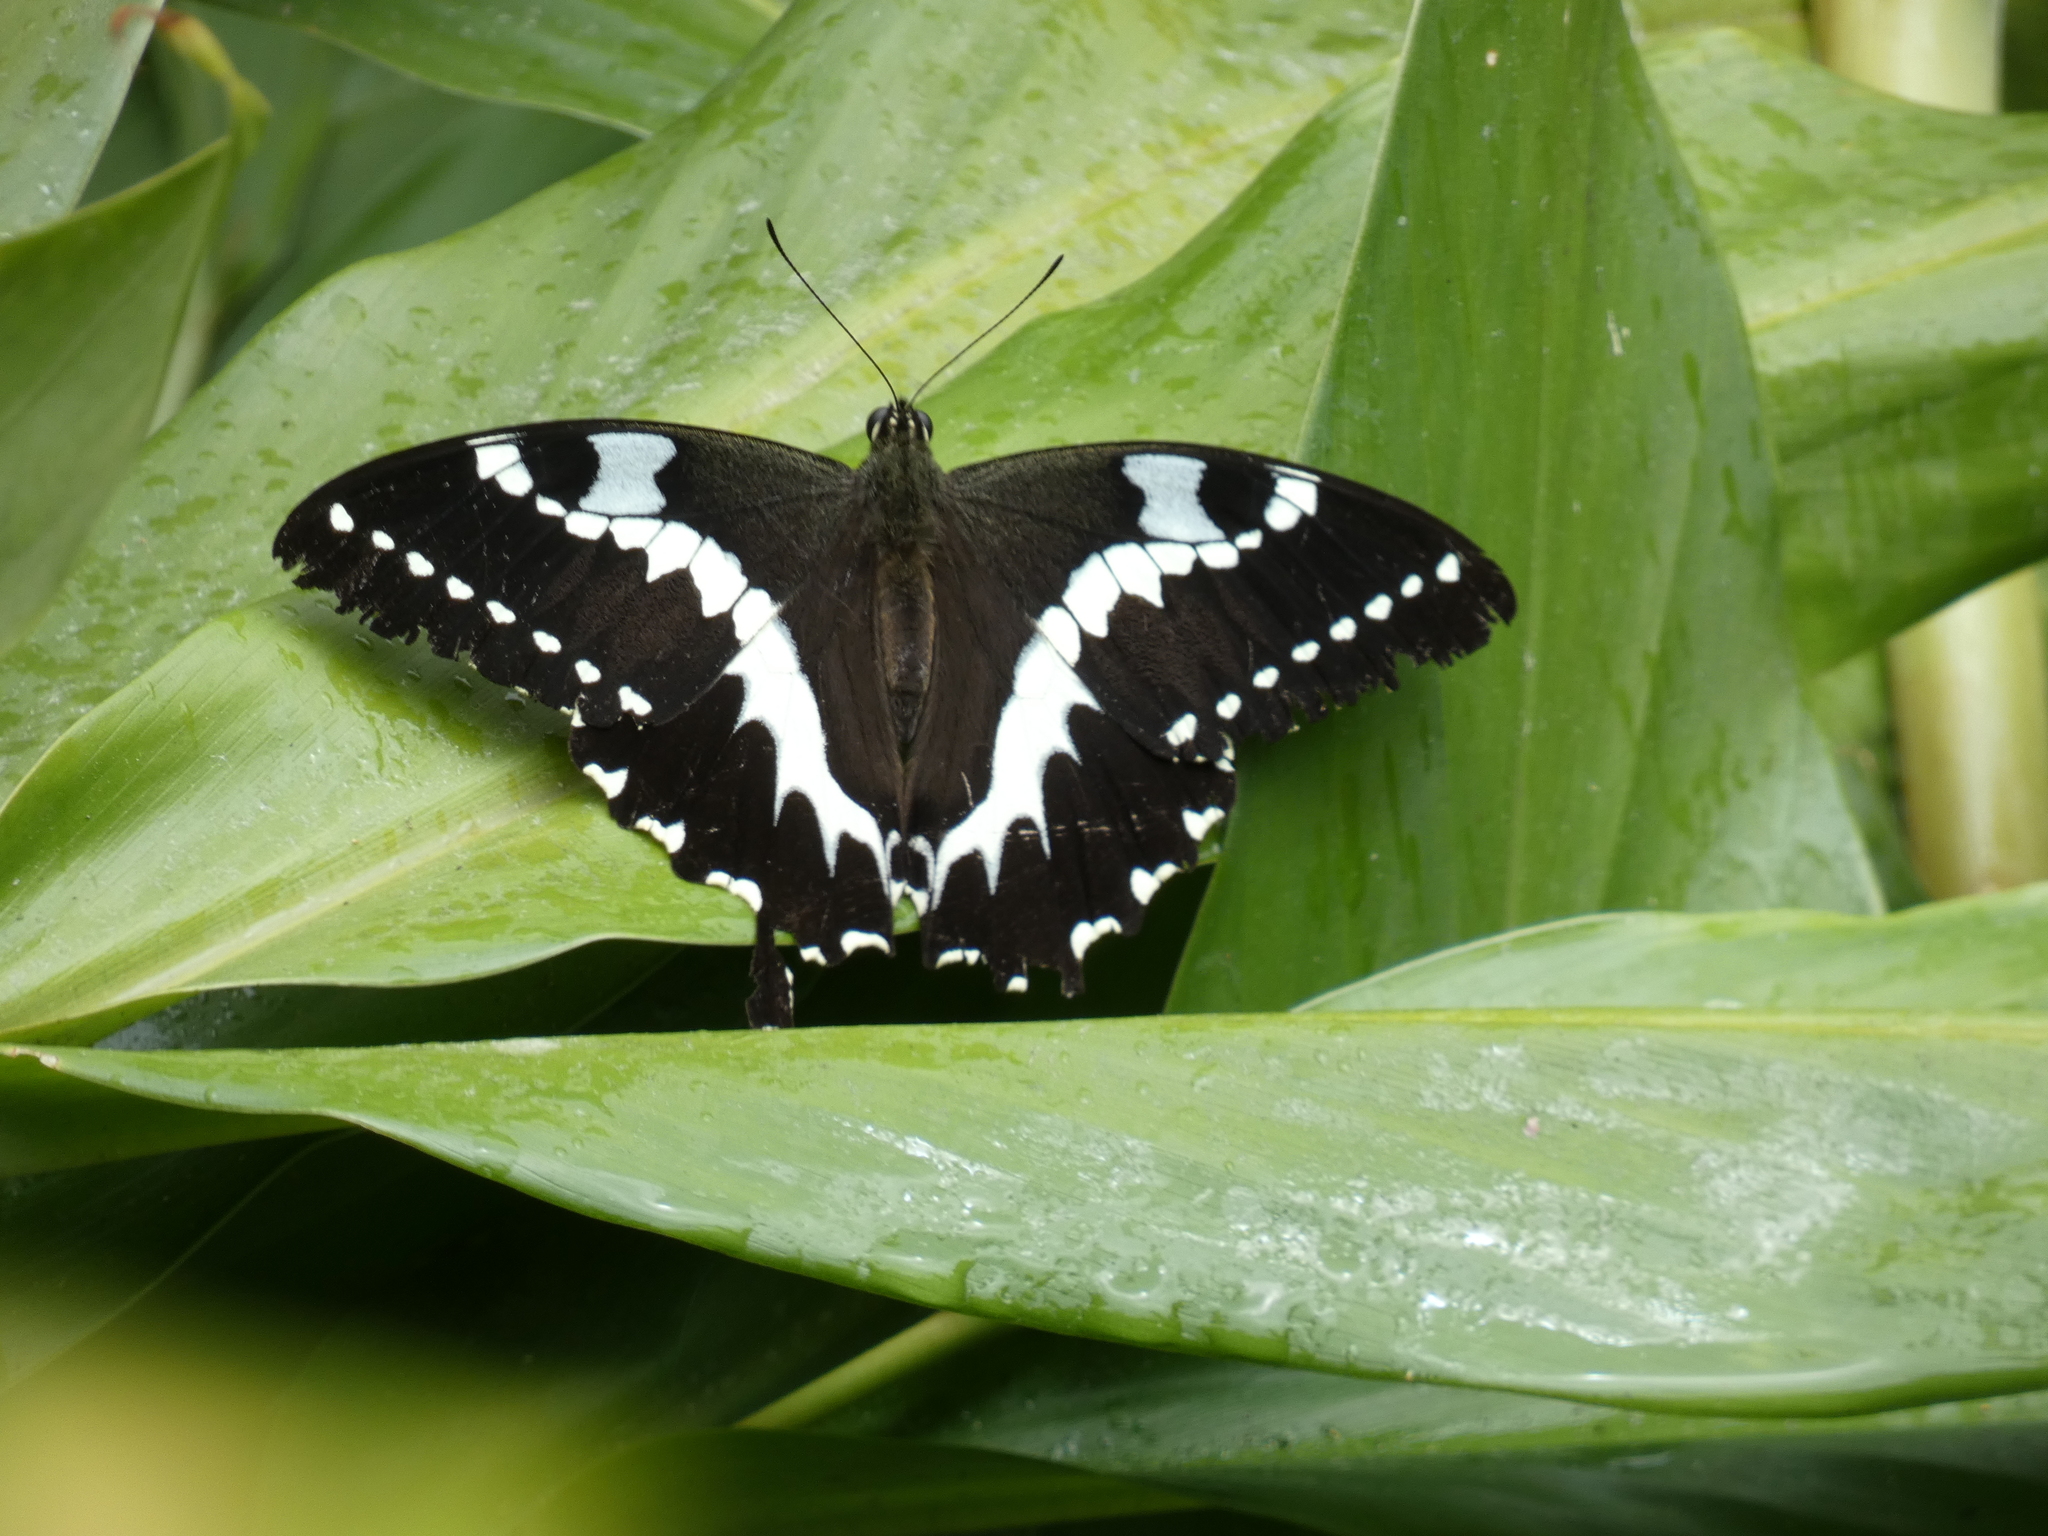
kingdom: Animalia
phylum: Arthropoda
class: Insecta
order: Lepidoptera
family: Papilionidae
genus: Papilio
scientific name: Papilio delalandei
